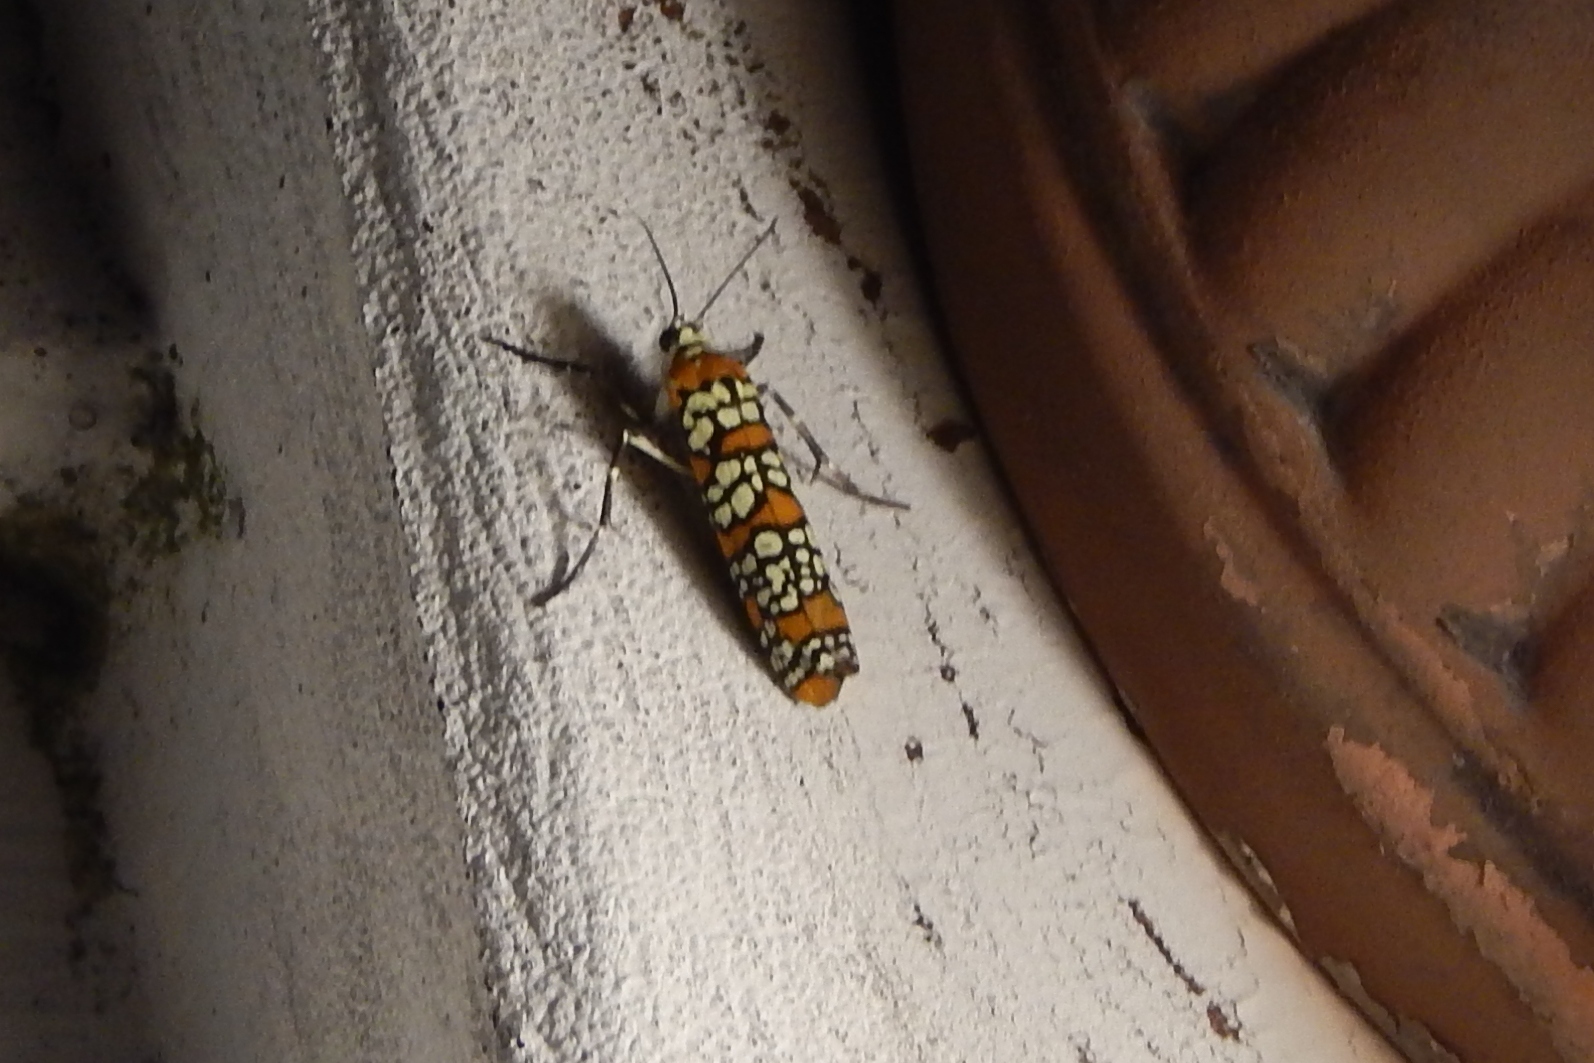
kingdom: Animalia
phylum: Arthropoda
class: Insecta
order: Lepidoptera
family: Attevidae
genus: Atteva
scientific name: Atteva punctella
